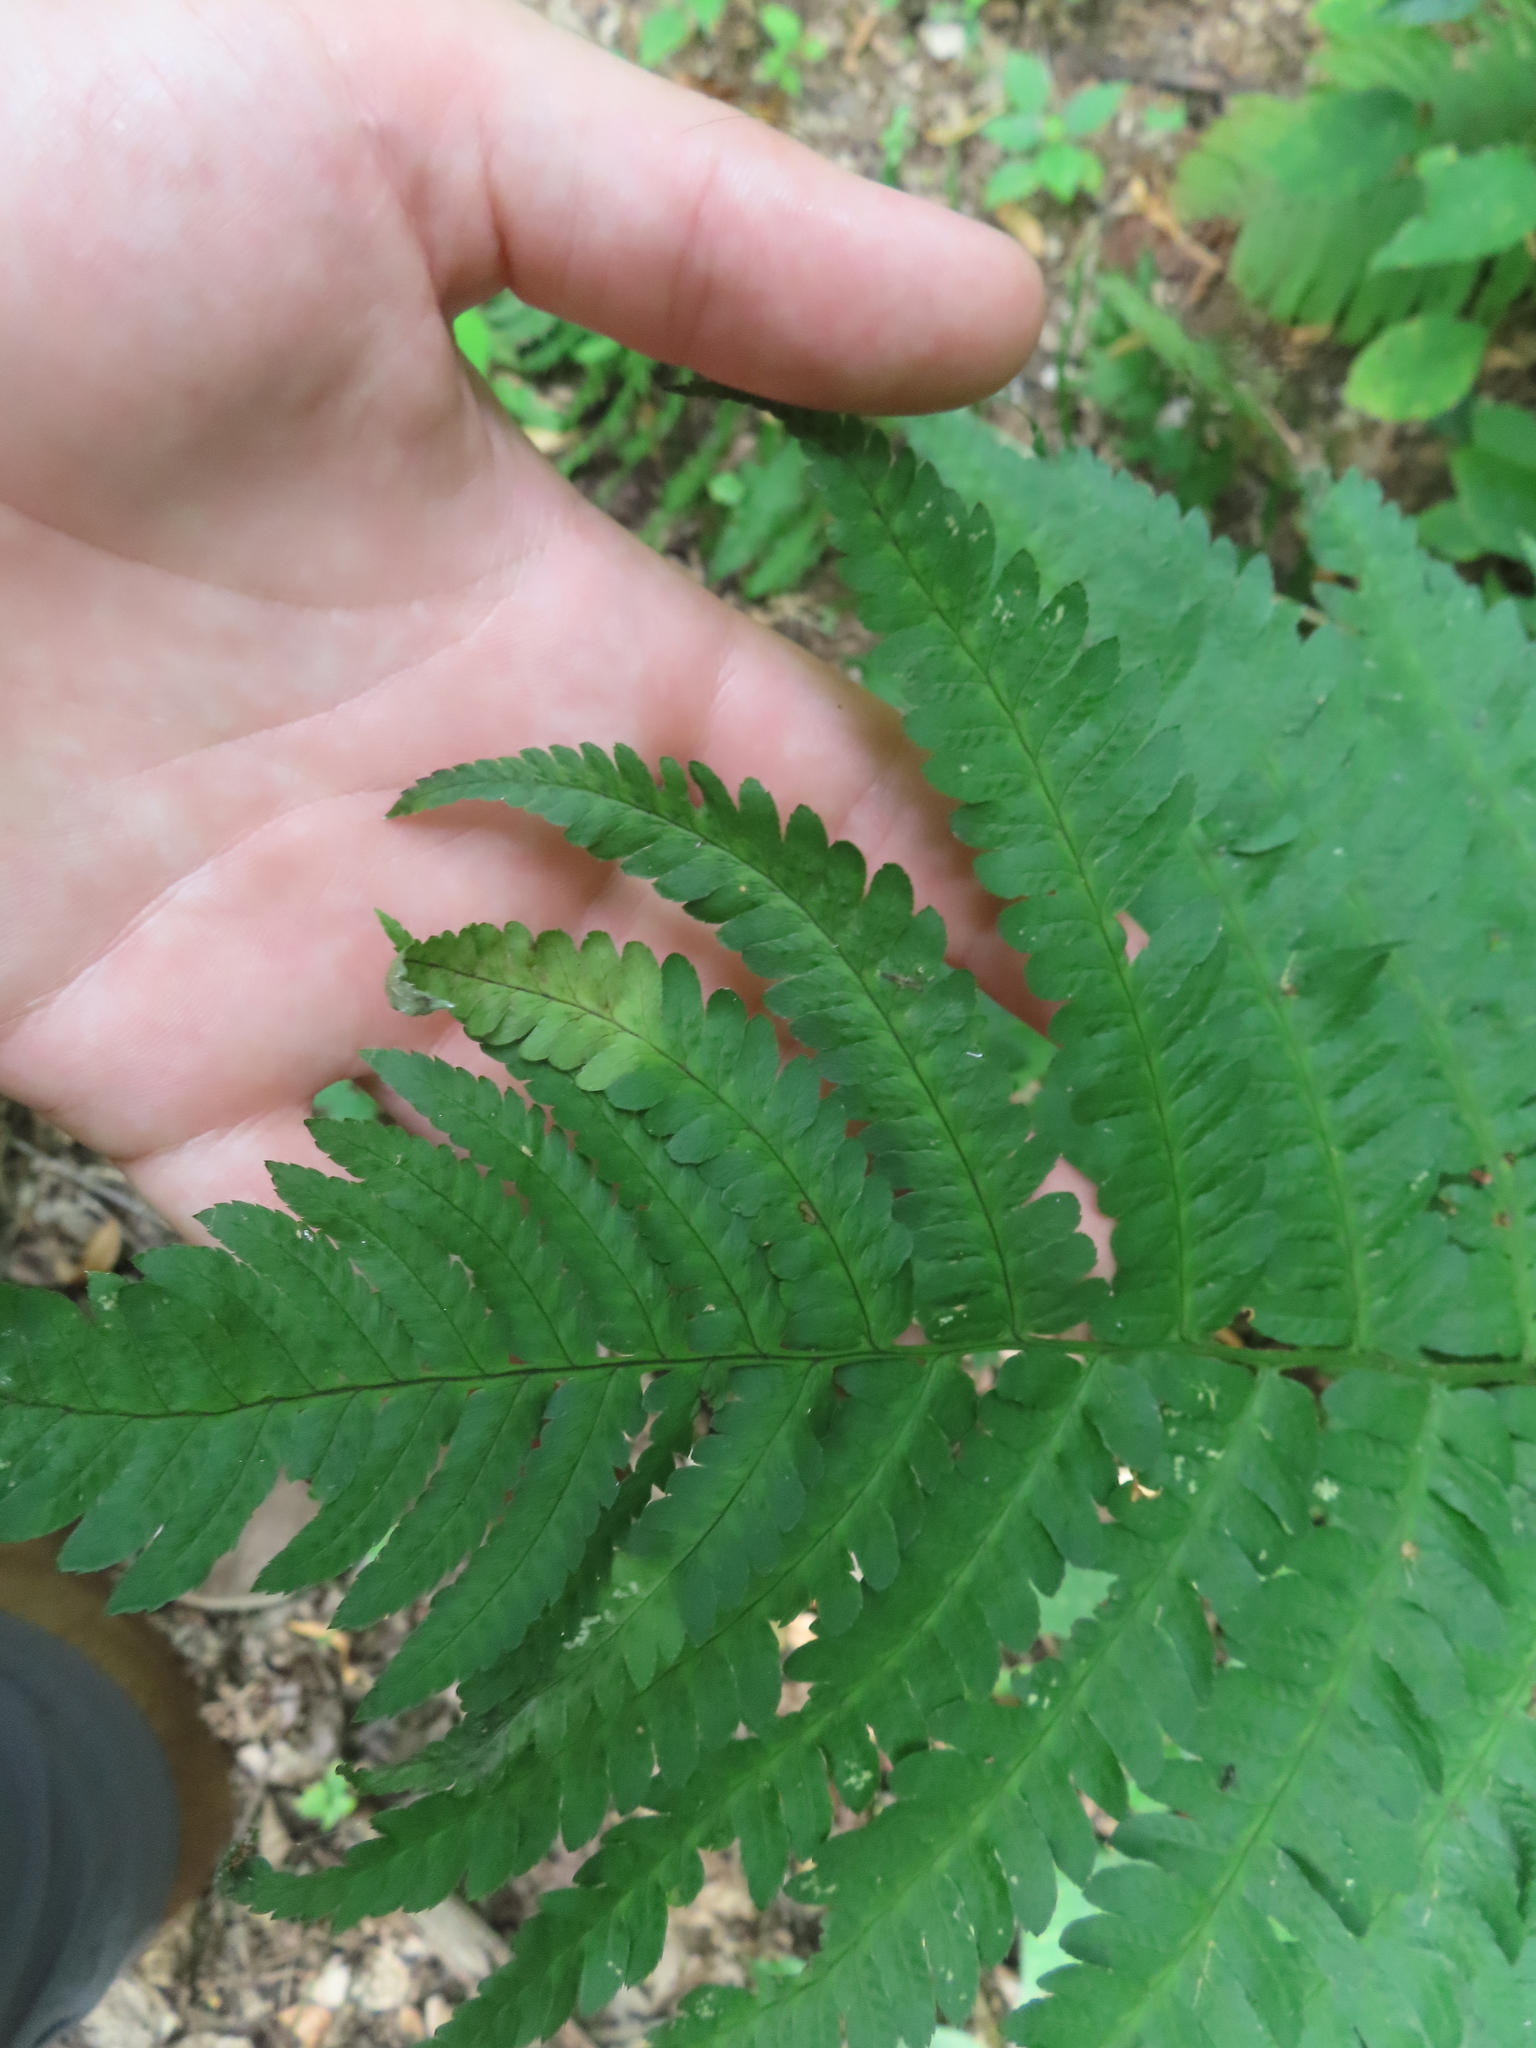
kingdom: Plantae
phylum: Tracheophyta
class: Polypodiopsida
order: Polypodiales
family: Dryopteridaceae
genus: Dryopteris
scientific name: Dryopteris goldieana
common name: Goldie's fern
